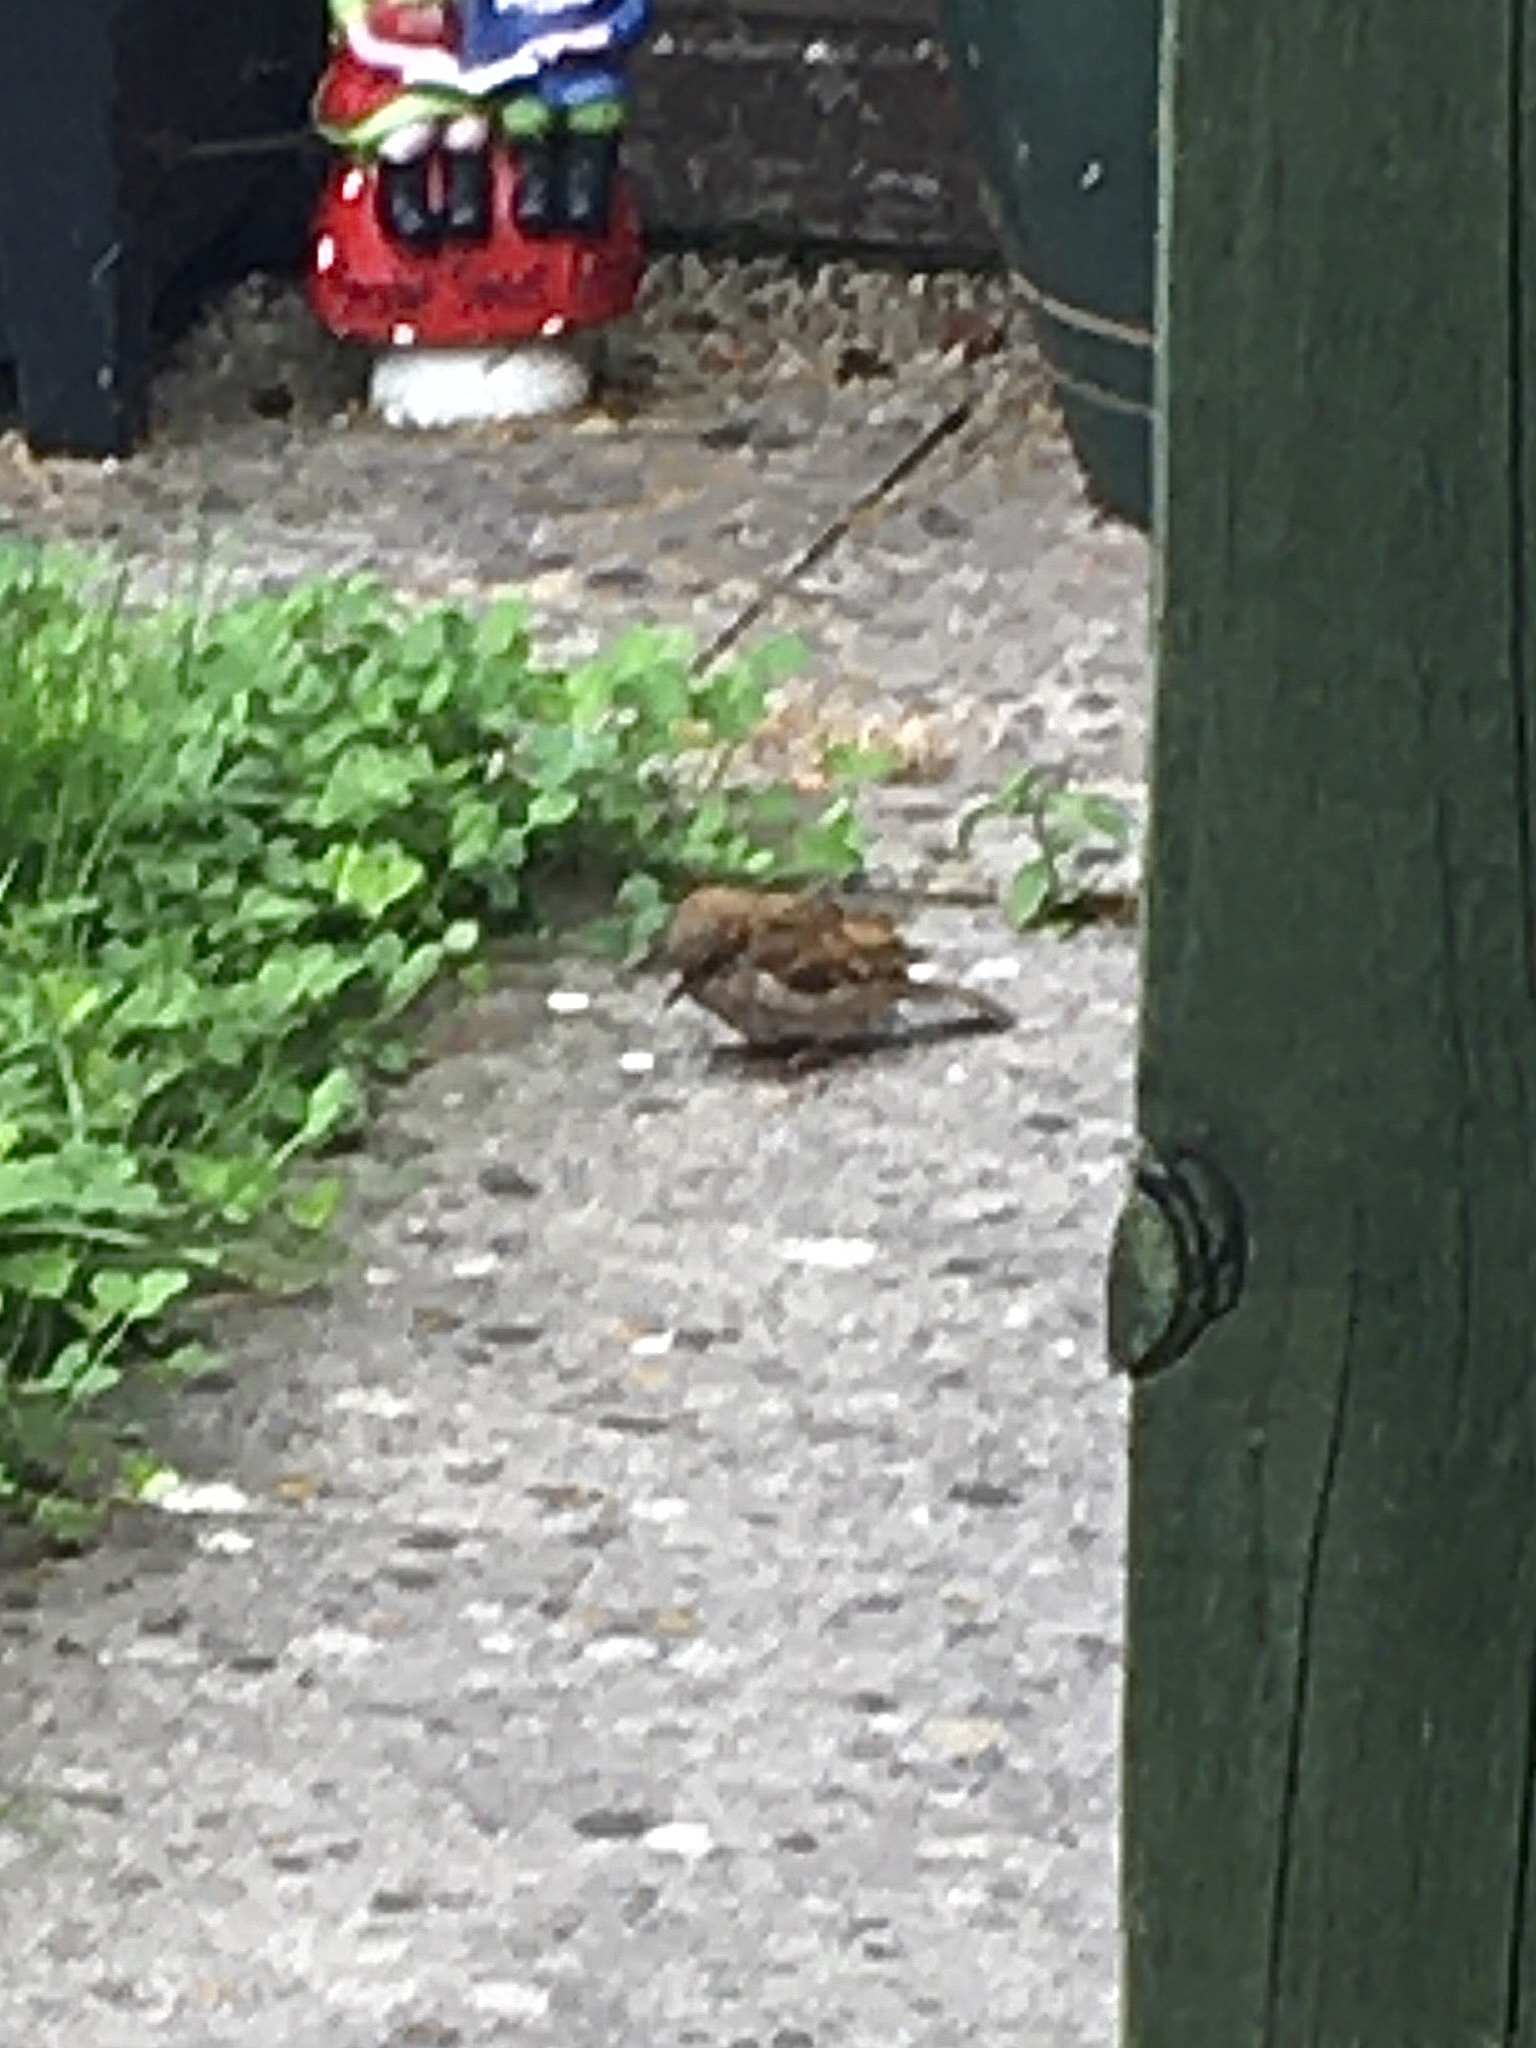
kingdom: Animalia
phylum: Chordata
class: Aves
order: Passeriformes
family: Passeridae
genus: Passer
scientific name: Passer domesticus
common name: House sparrow
